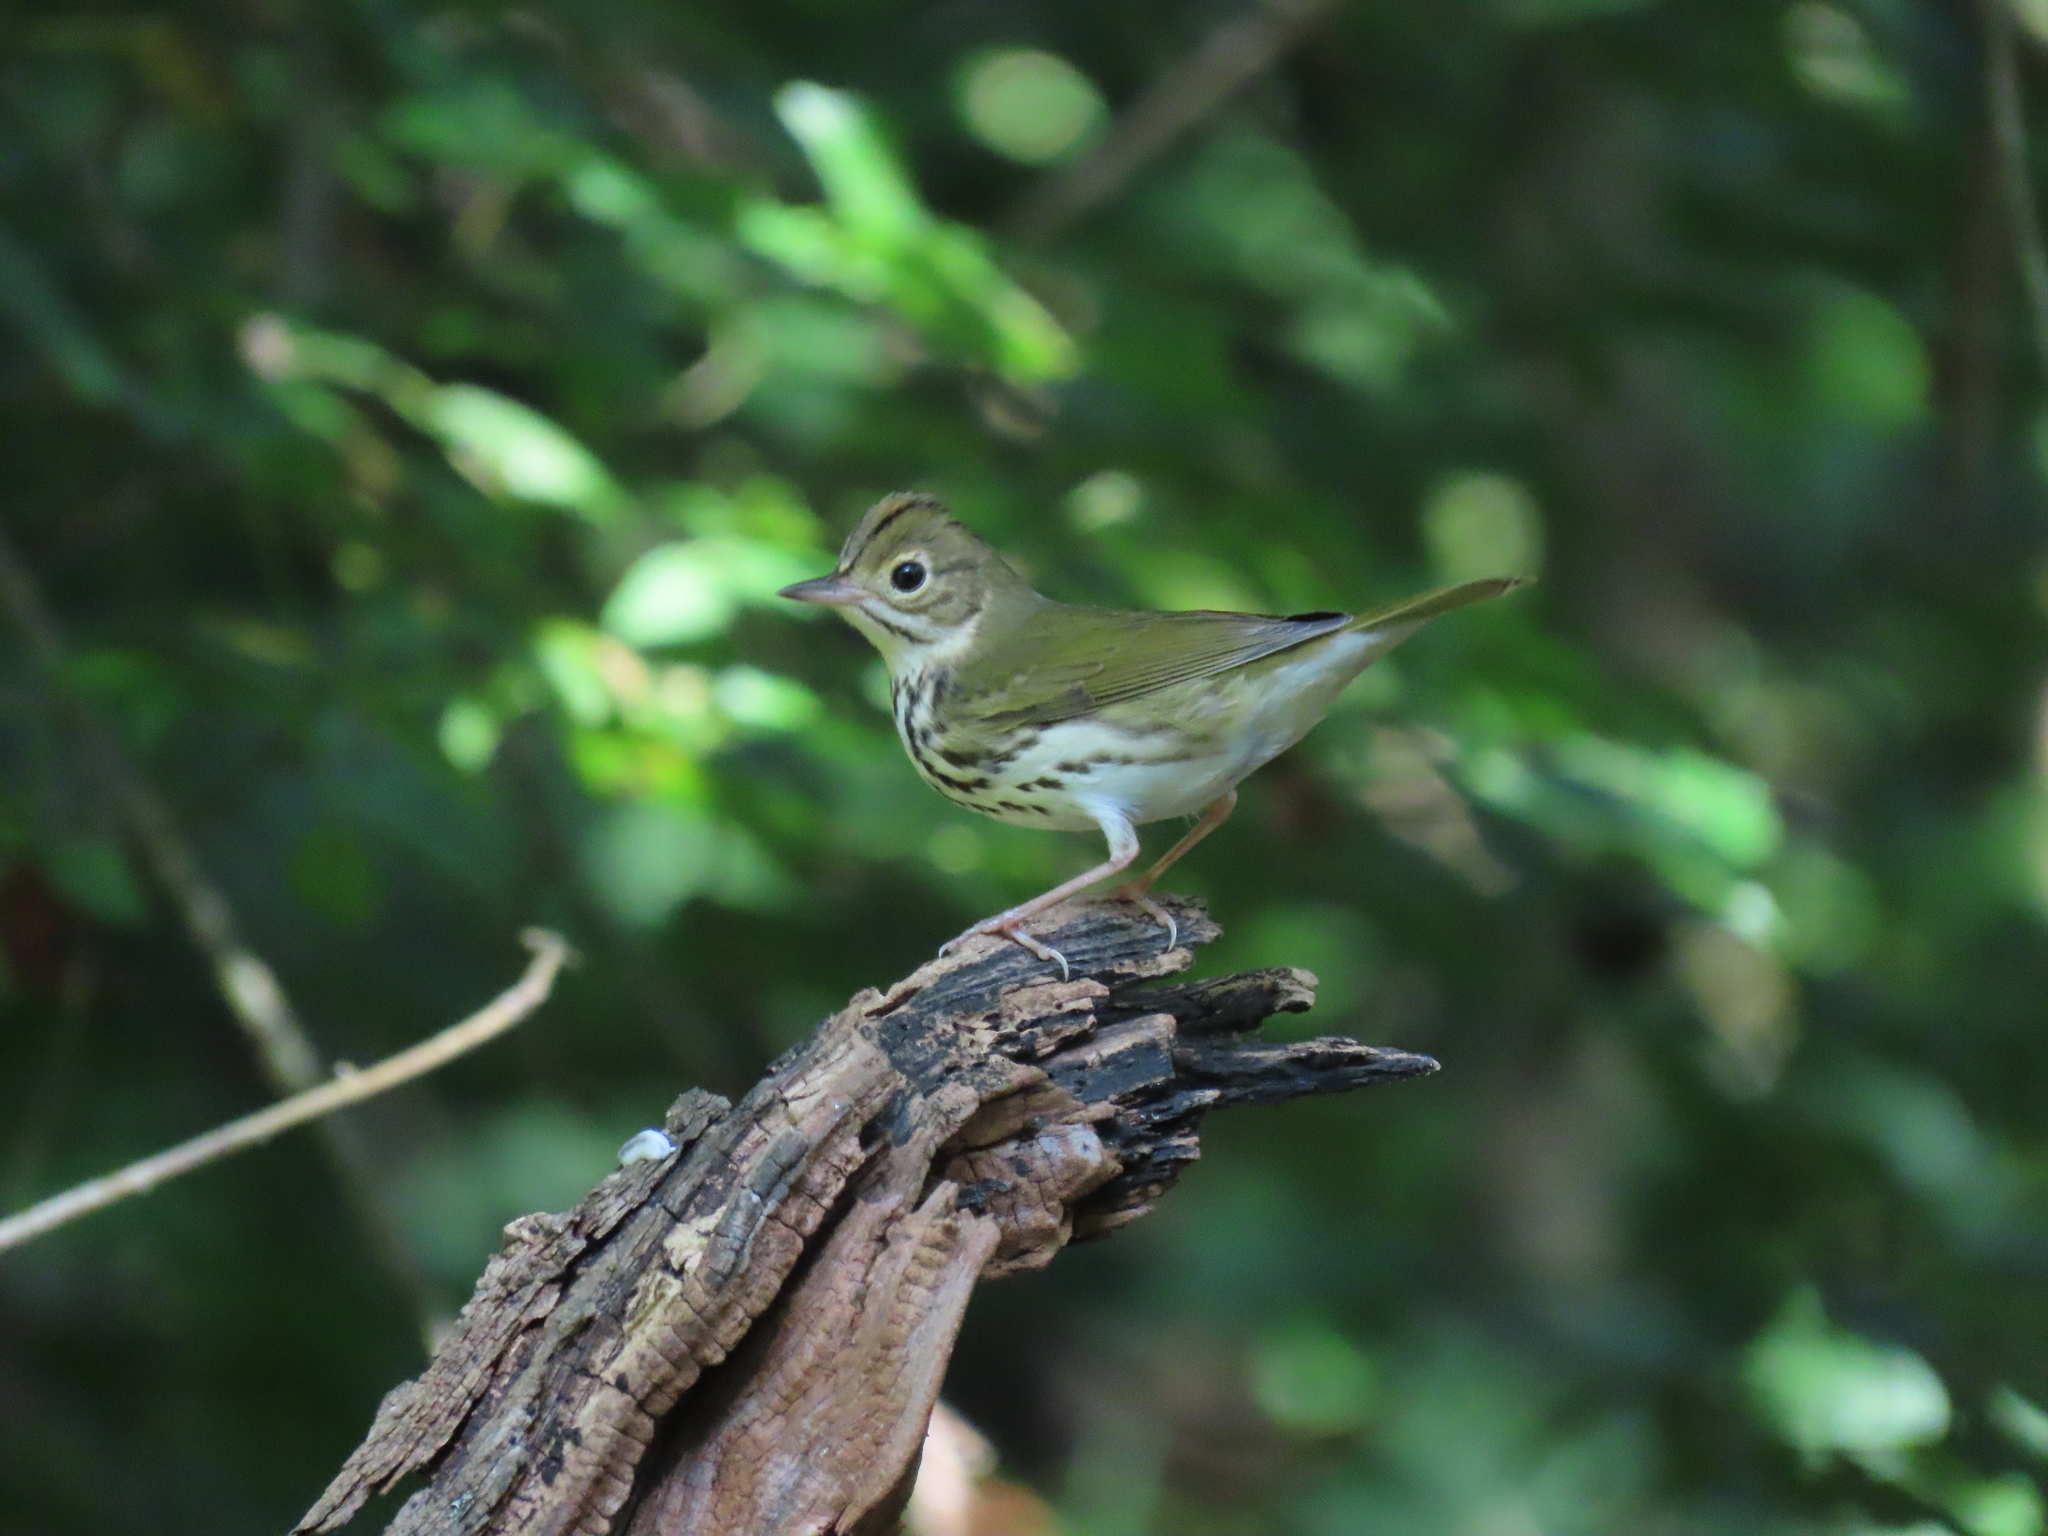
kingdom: Animalia
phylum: Chordata
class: Aves
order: Passeriformes
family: Parulidae
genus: Seiurus
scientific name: Seiurus aurocapilla
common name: Ovenbird
